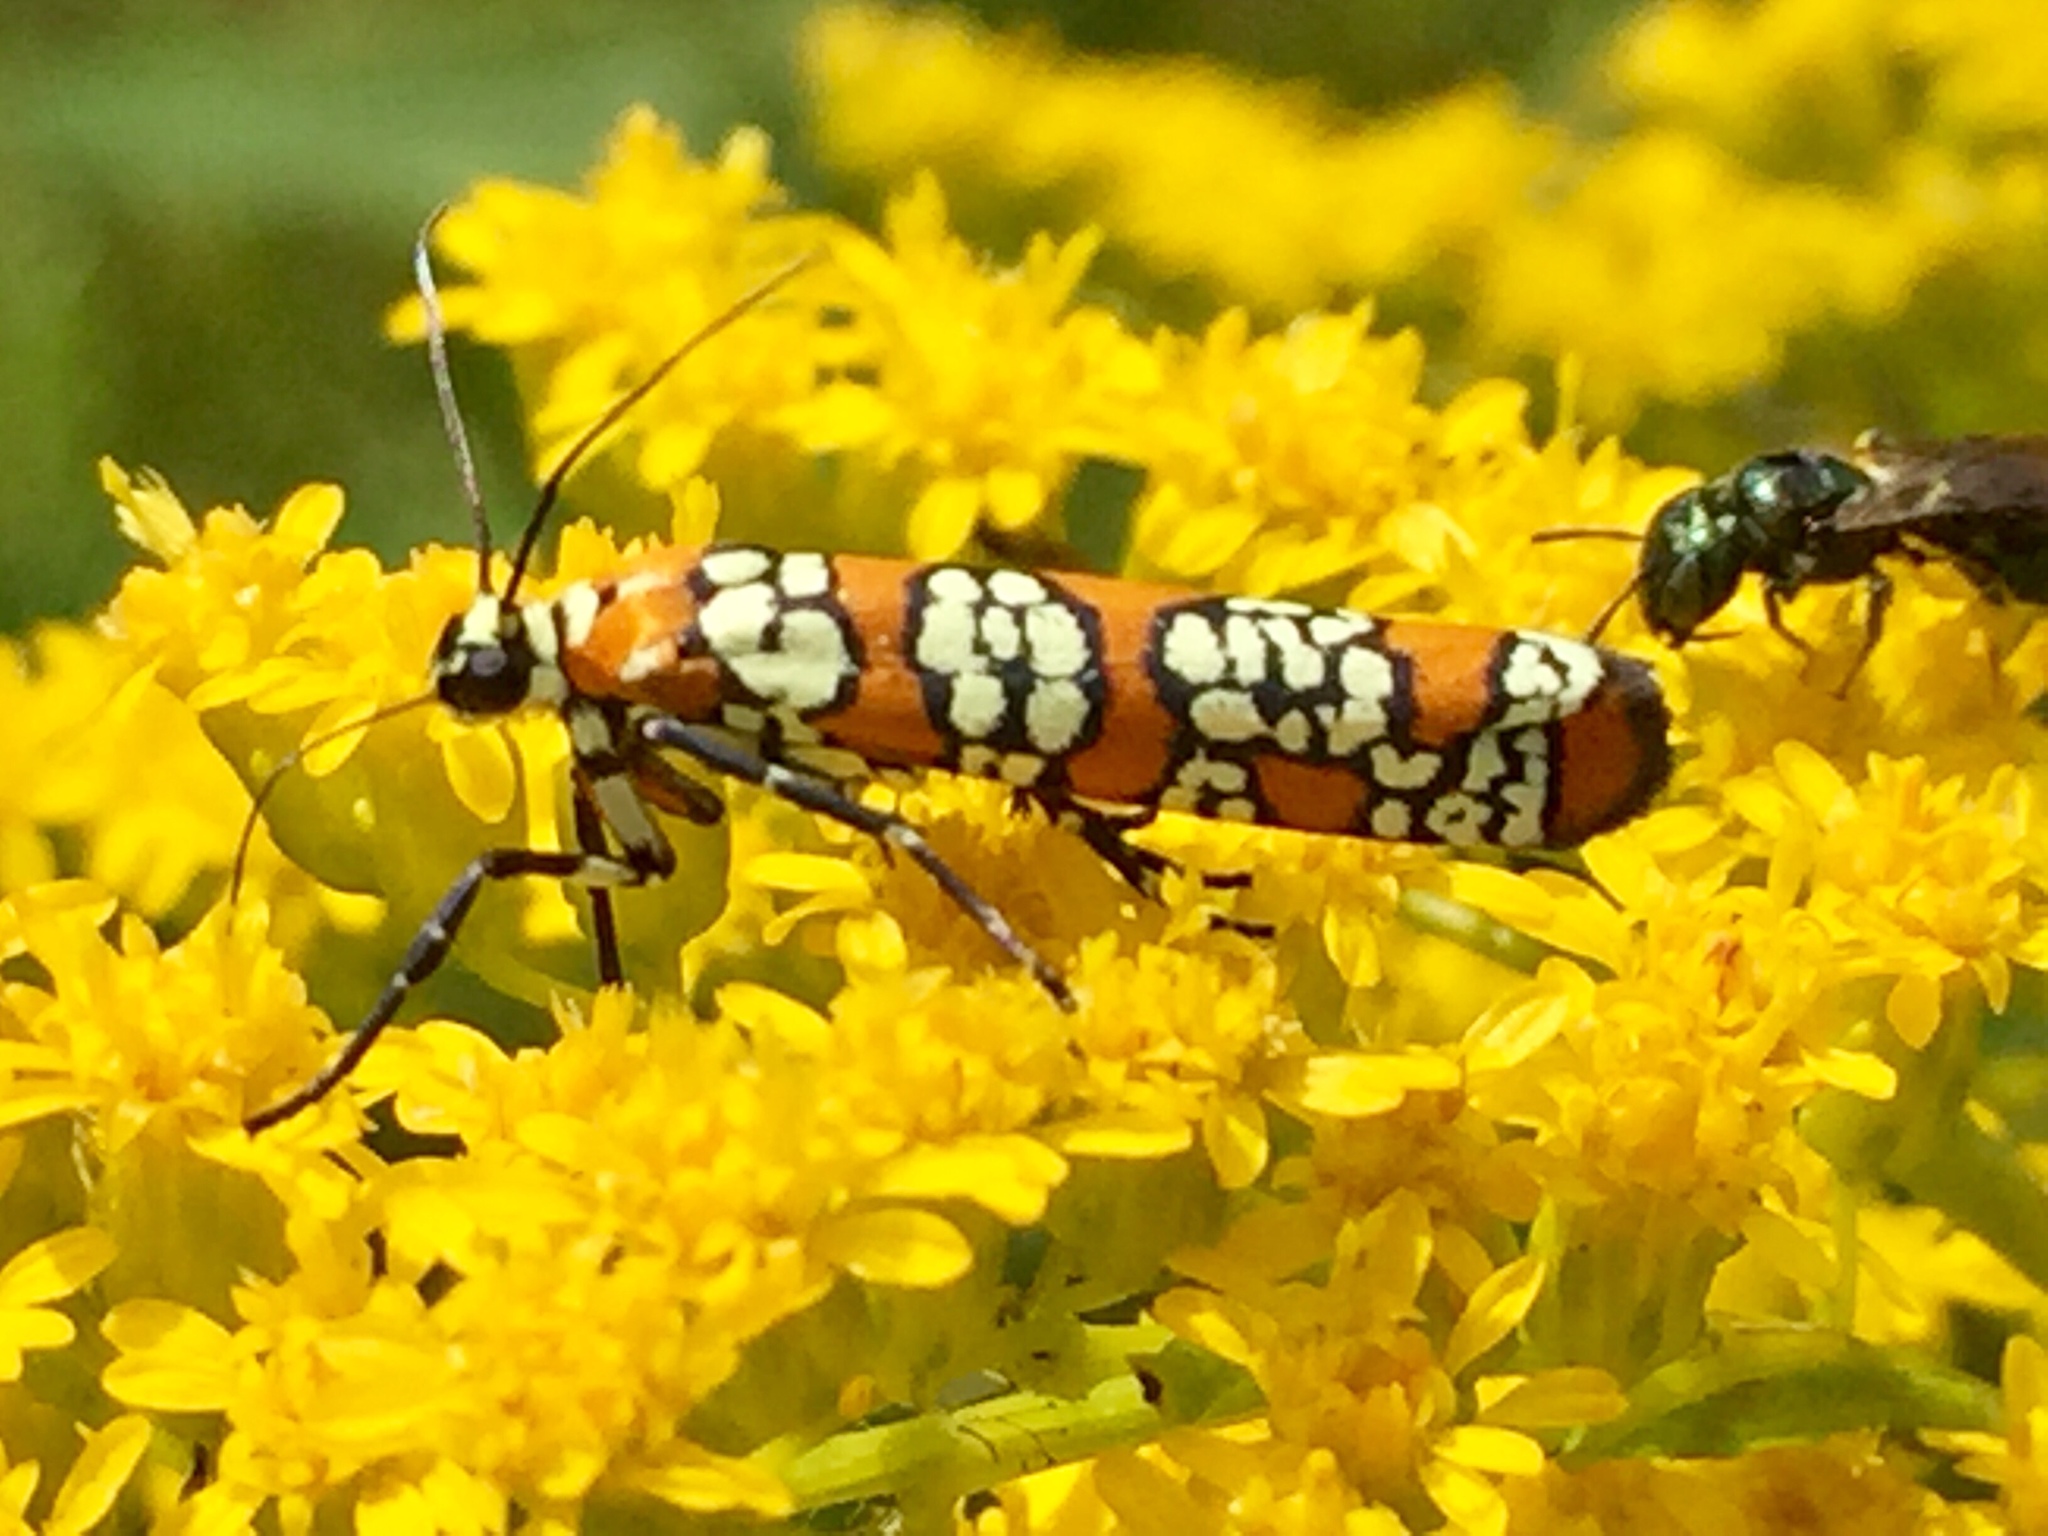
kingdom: Animalia
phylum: Arthropoda
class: Insecta
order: Lepidoptera
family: Attevidae
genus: Atteva
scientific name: Atteva punctella
